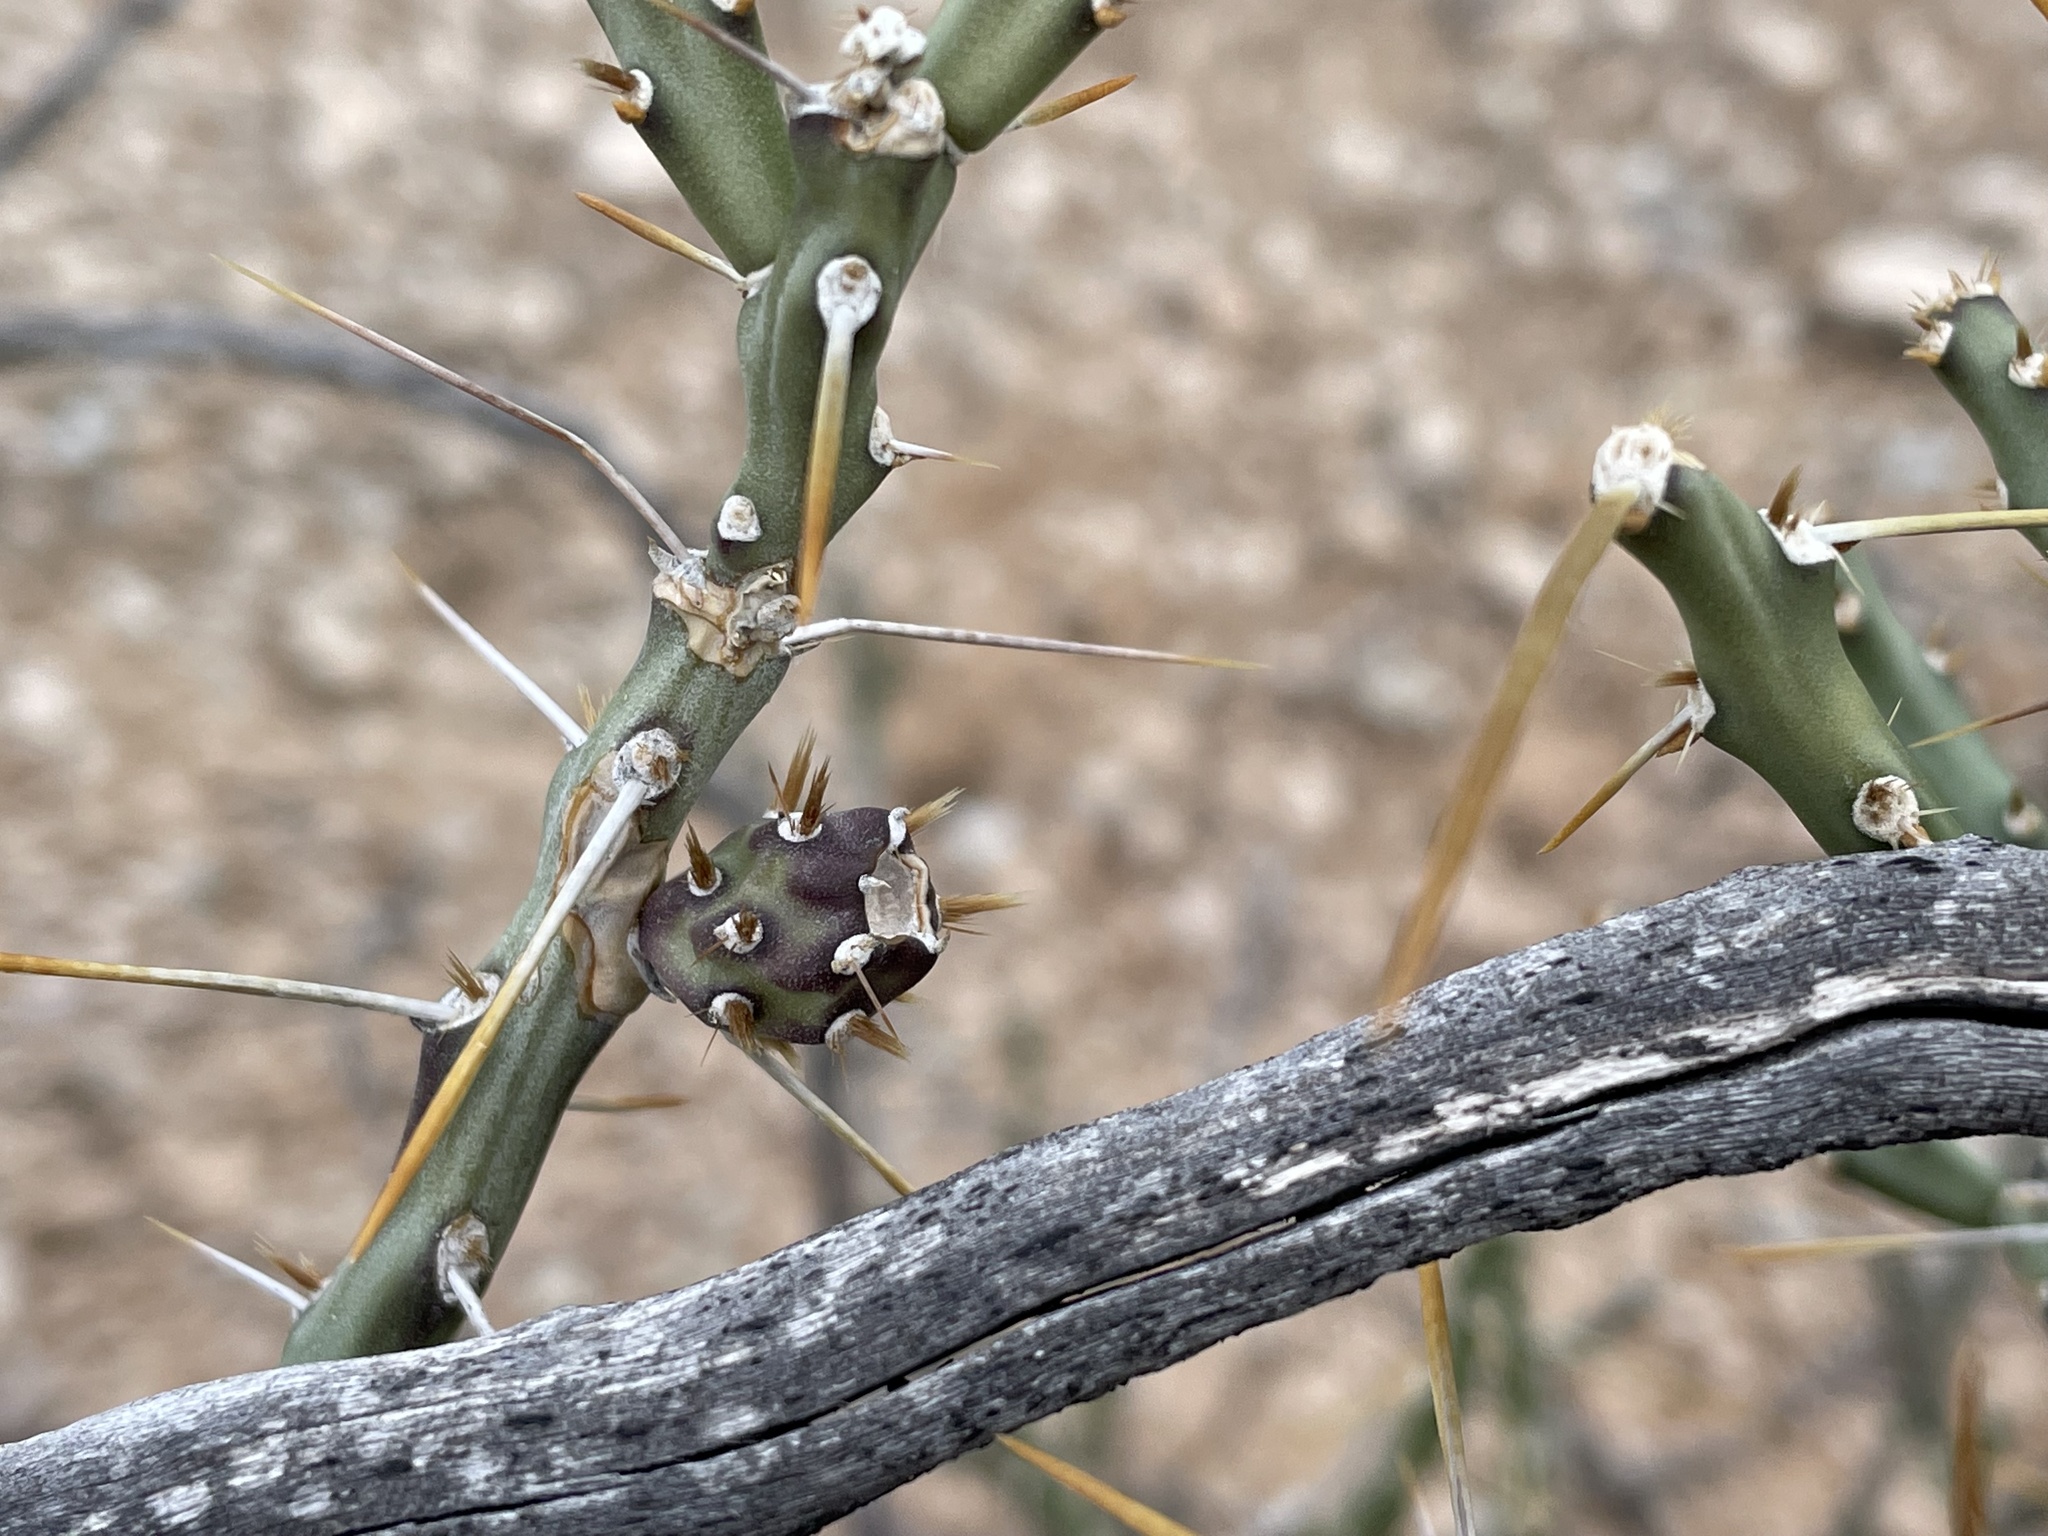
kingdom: Plantae
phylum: Tracheophyta
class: Magnoliopsida
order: Caryophyllales
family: Cactaceae
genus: Cylindropuntia
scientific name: Cylindropuntia leptocaulis
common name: Christmas cactus
